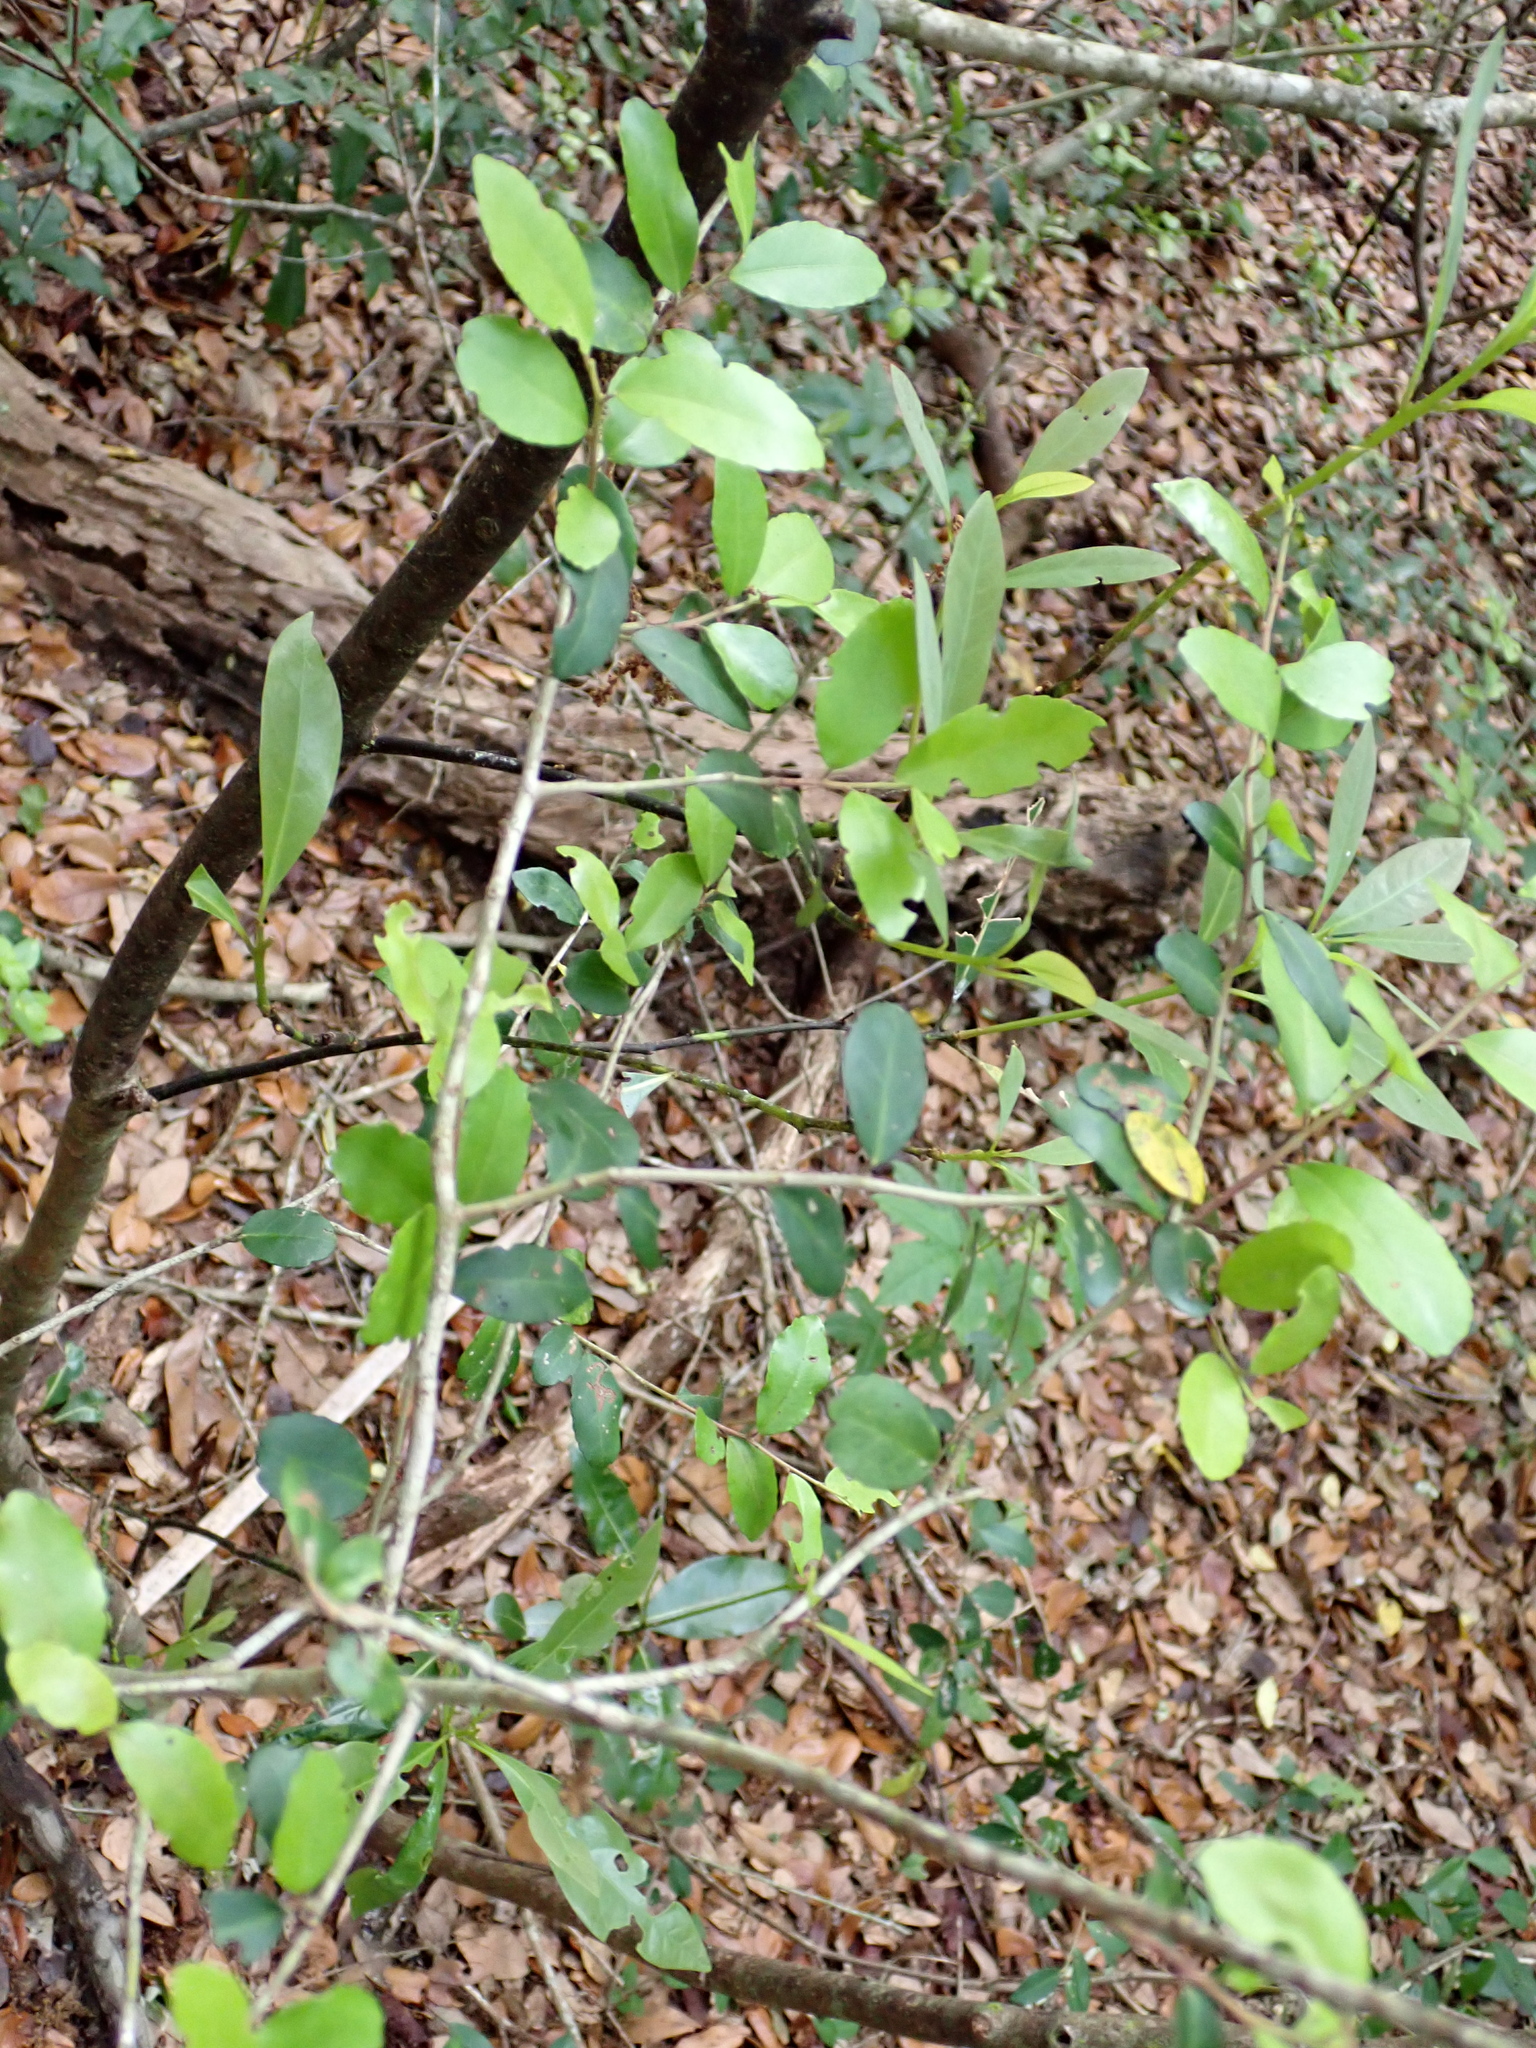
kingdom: Plantae
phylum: Tracheophyta
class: Magnoliopsida
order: Aquifoliales
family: Aquifoliaceae
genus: Ilex
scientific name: Ilex vomitoria
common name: Yaupon holly
